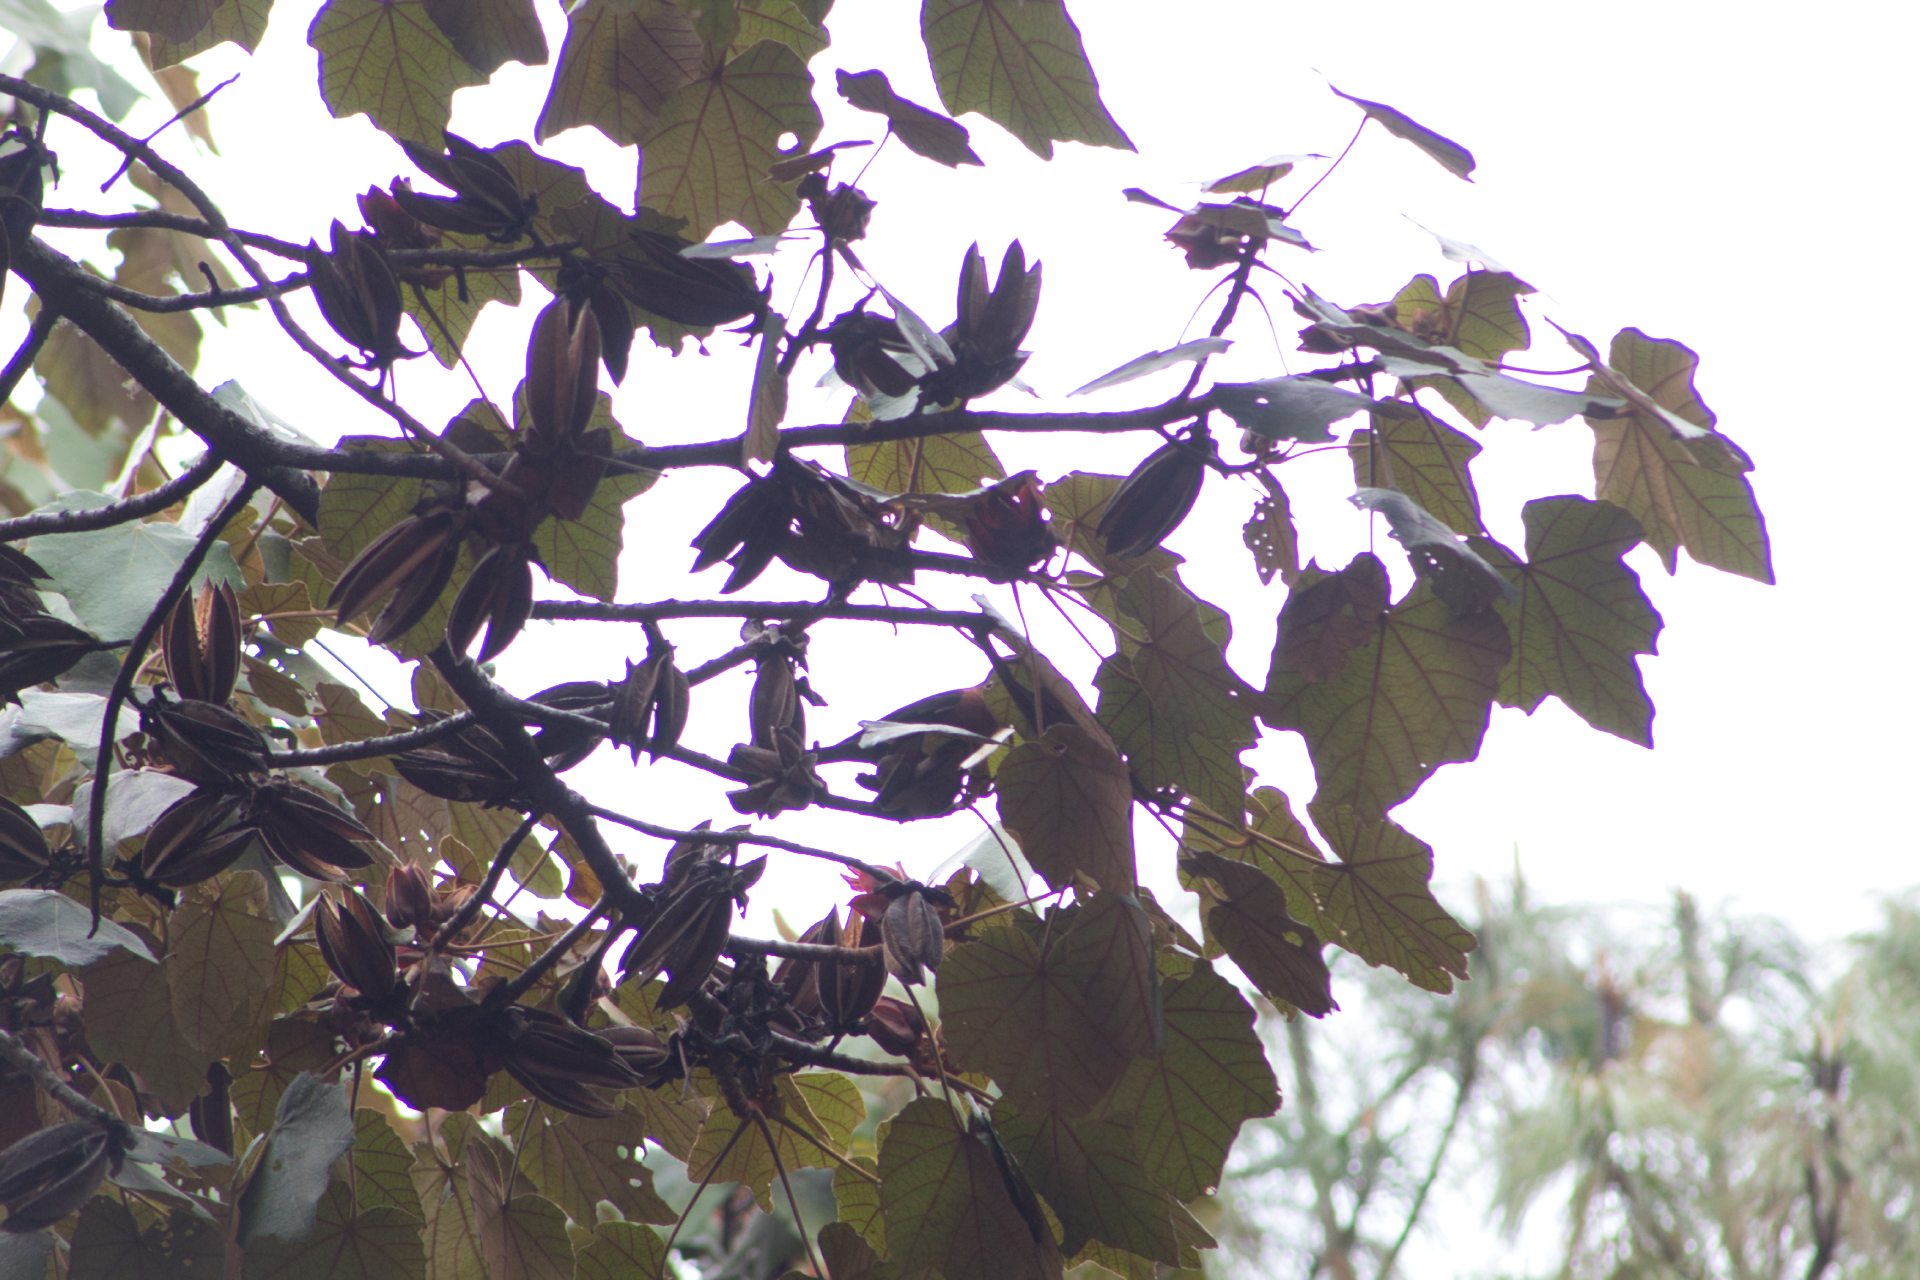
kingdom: Plantae
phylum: Tracheophyta
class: Magnoliopsida
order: Malvales
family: Malvaceae
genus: Chiranthodendron
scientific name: Chiranthodendron pentadactylon
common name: Mexican-hat-plant
